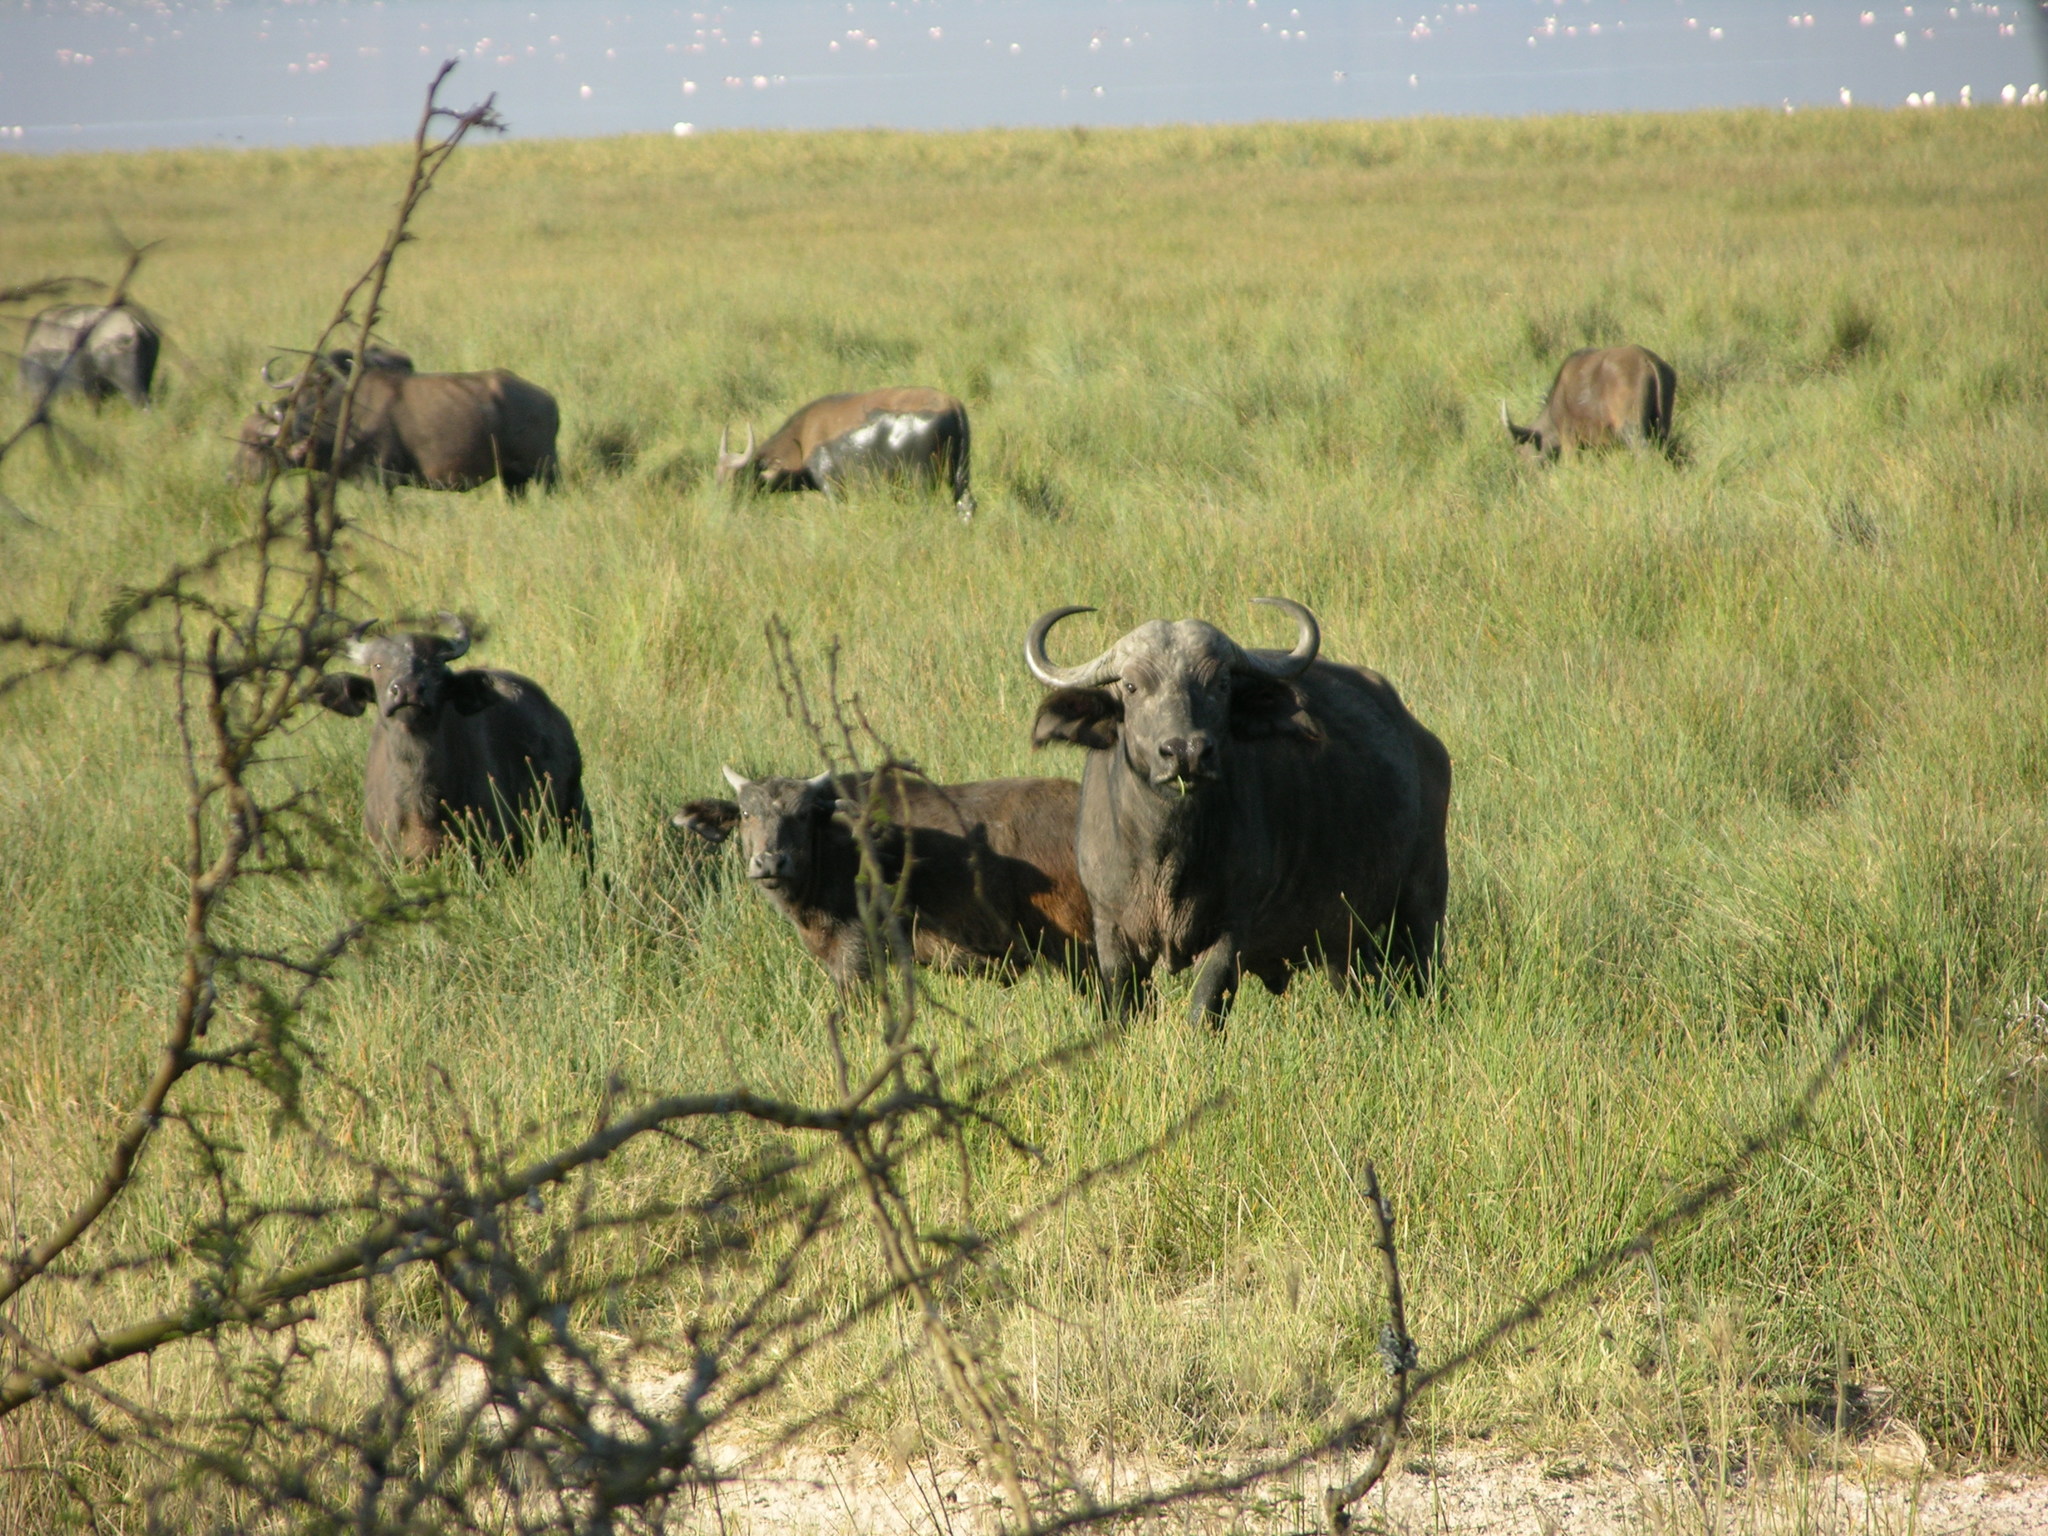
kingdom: Animalia
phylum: Chordata
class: Mammalia
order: Artiodactyla
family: Bovidae
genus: Syncerus
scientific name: Syncerus caffer
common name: African buffalo
